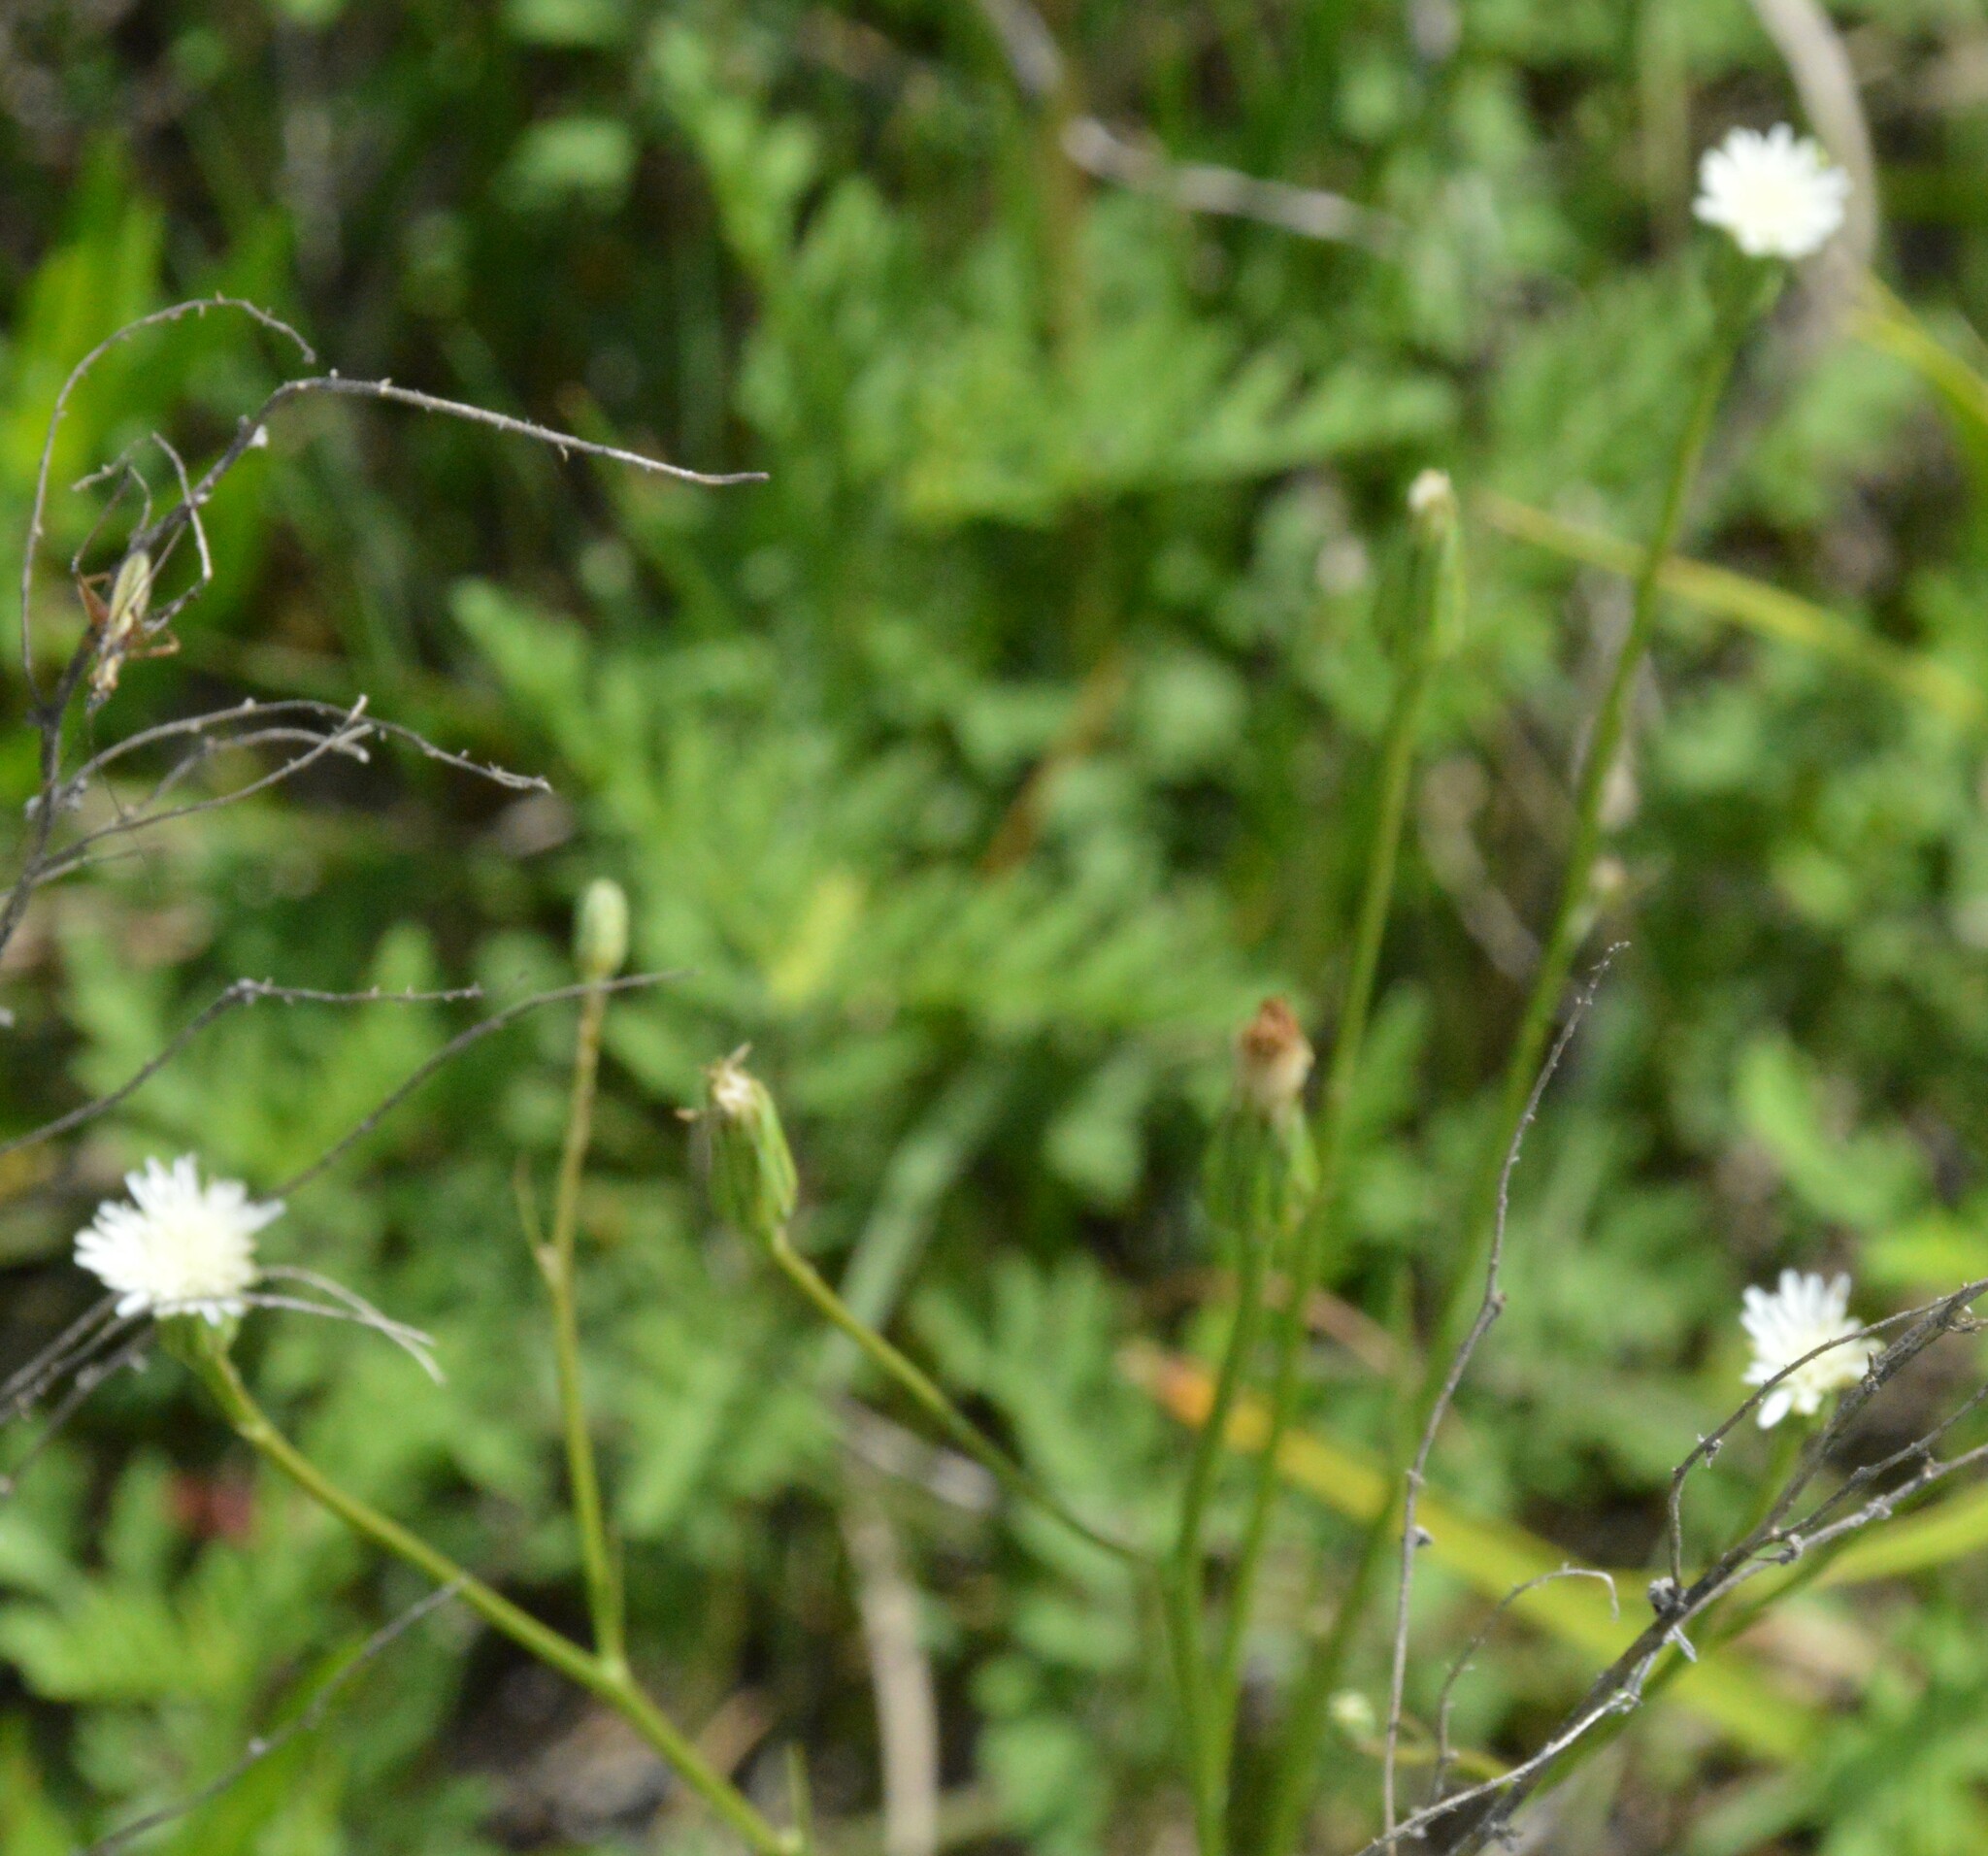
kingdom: Plantae
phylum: Tracheophyta
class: Magnoliopsida
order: Asterales
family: Asteraceae
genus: Hypochaeris
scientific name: Hypochaeris albiflora
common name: White flatweed
